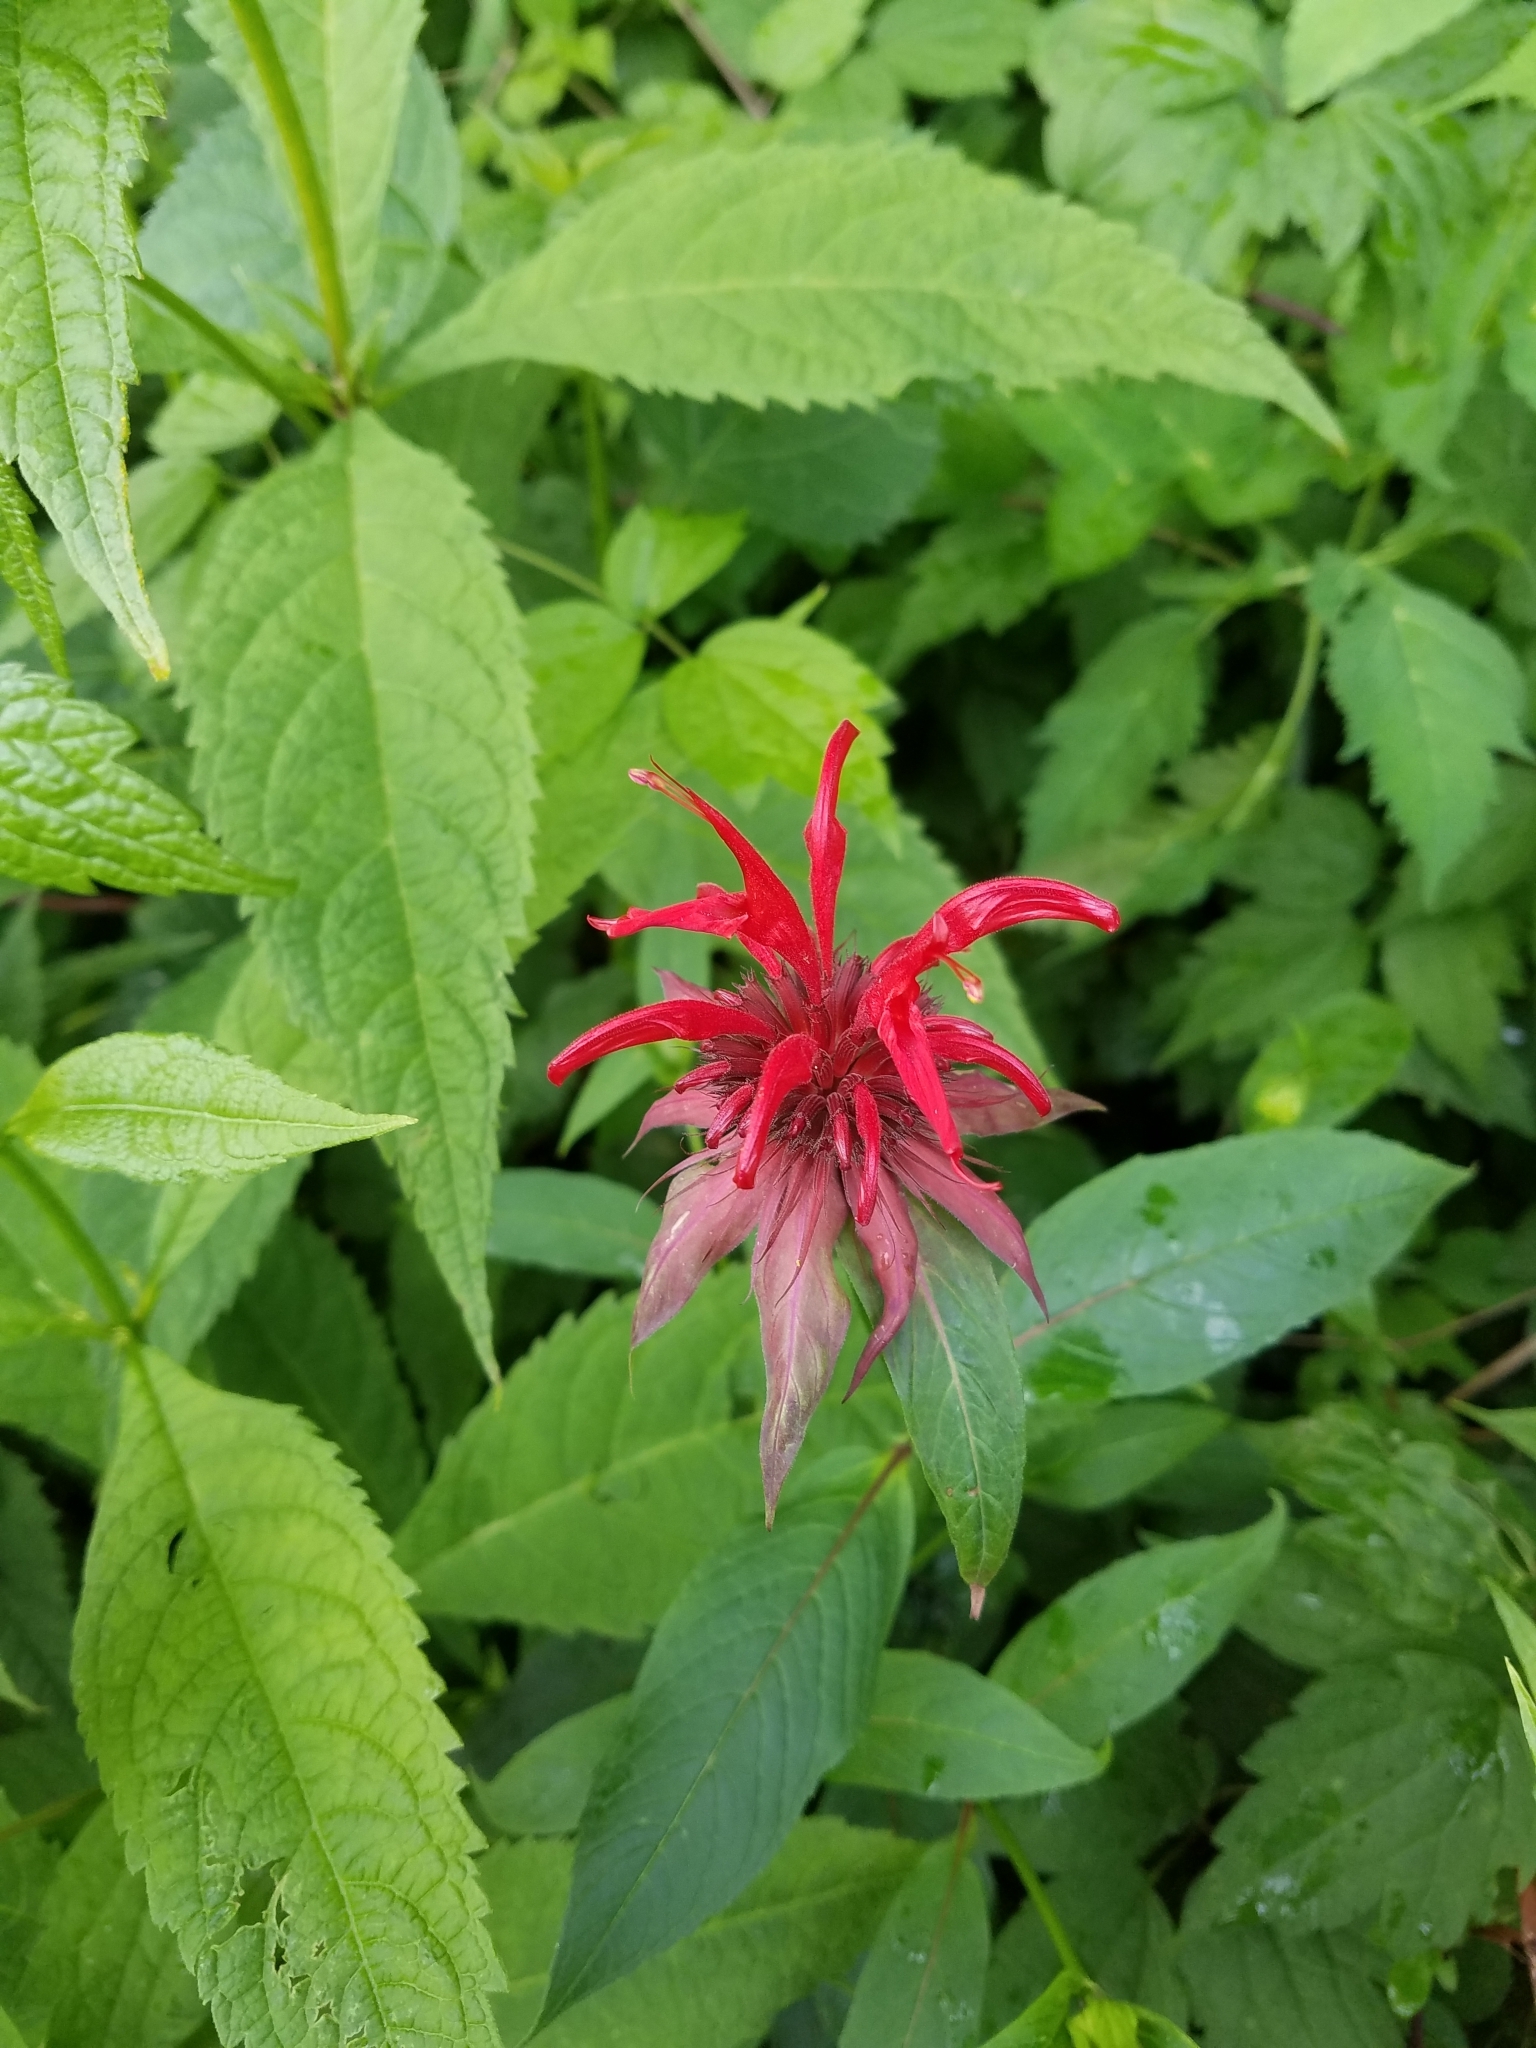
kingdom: Plantae
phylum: Tracheophyta
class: Magnoliopsida
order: Lamiales
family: Lamiaceae
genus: Monarda
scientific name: Monarda didyma
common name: Beebalm
